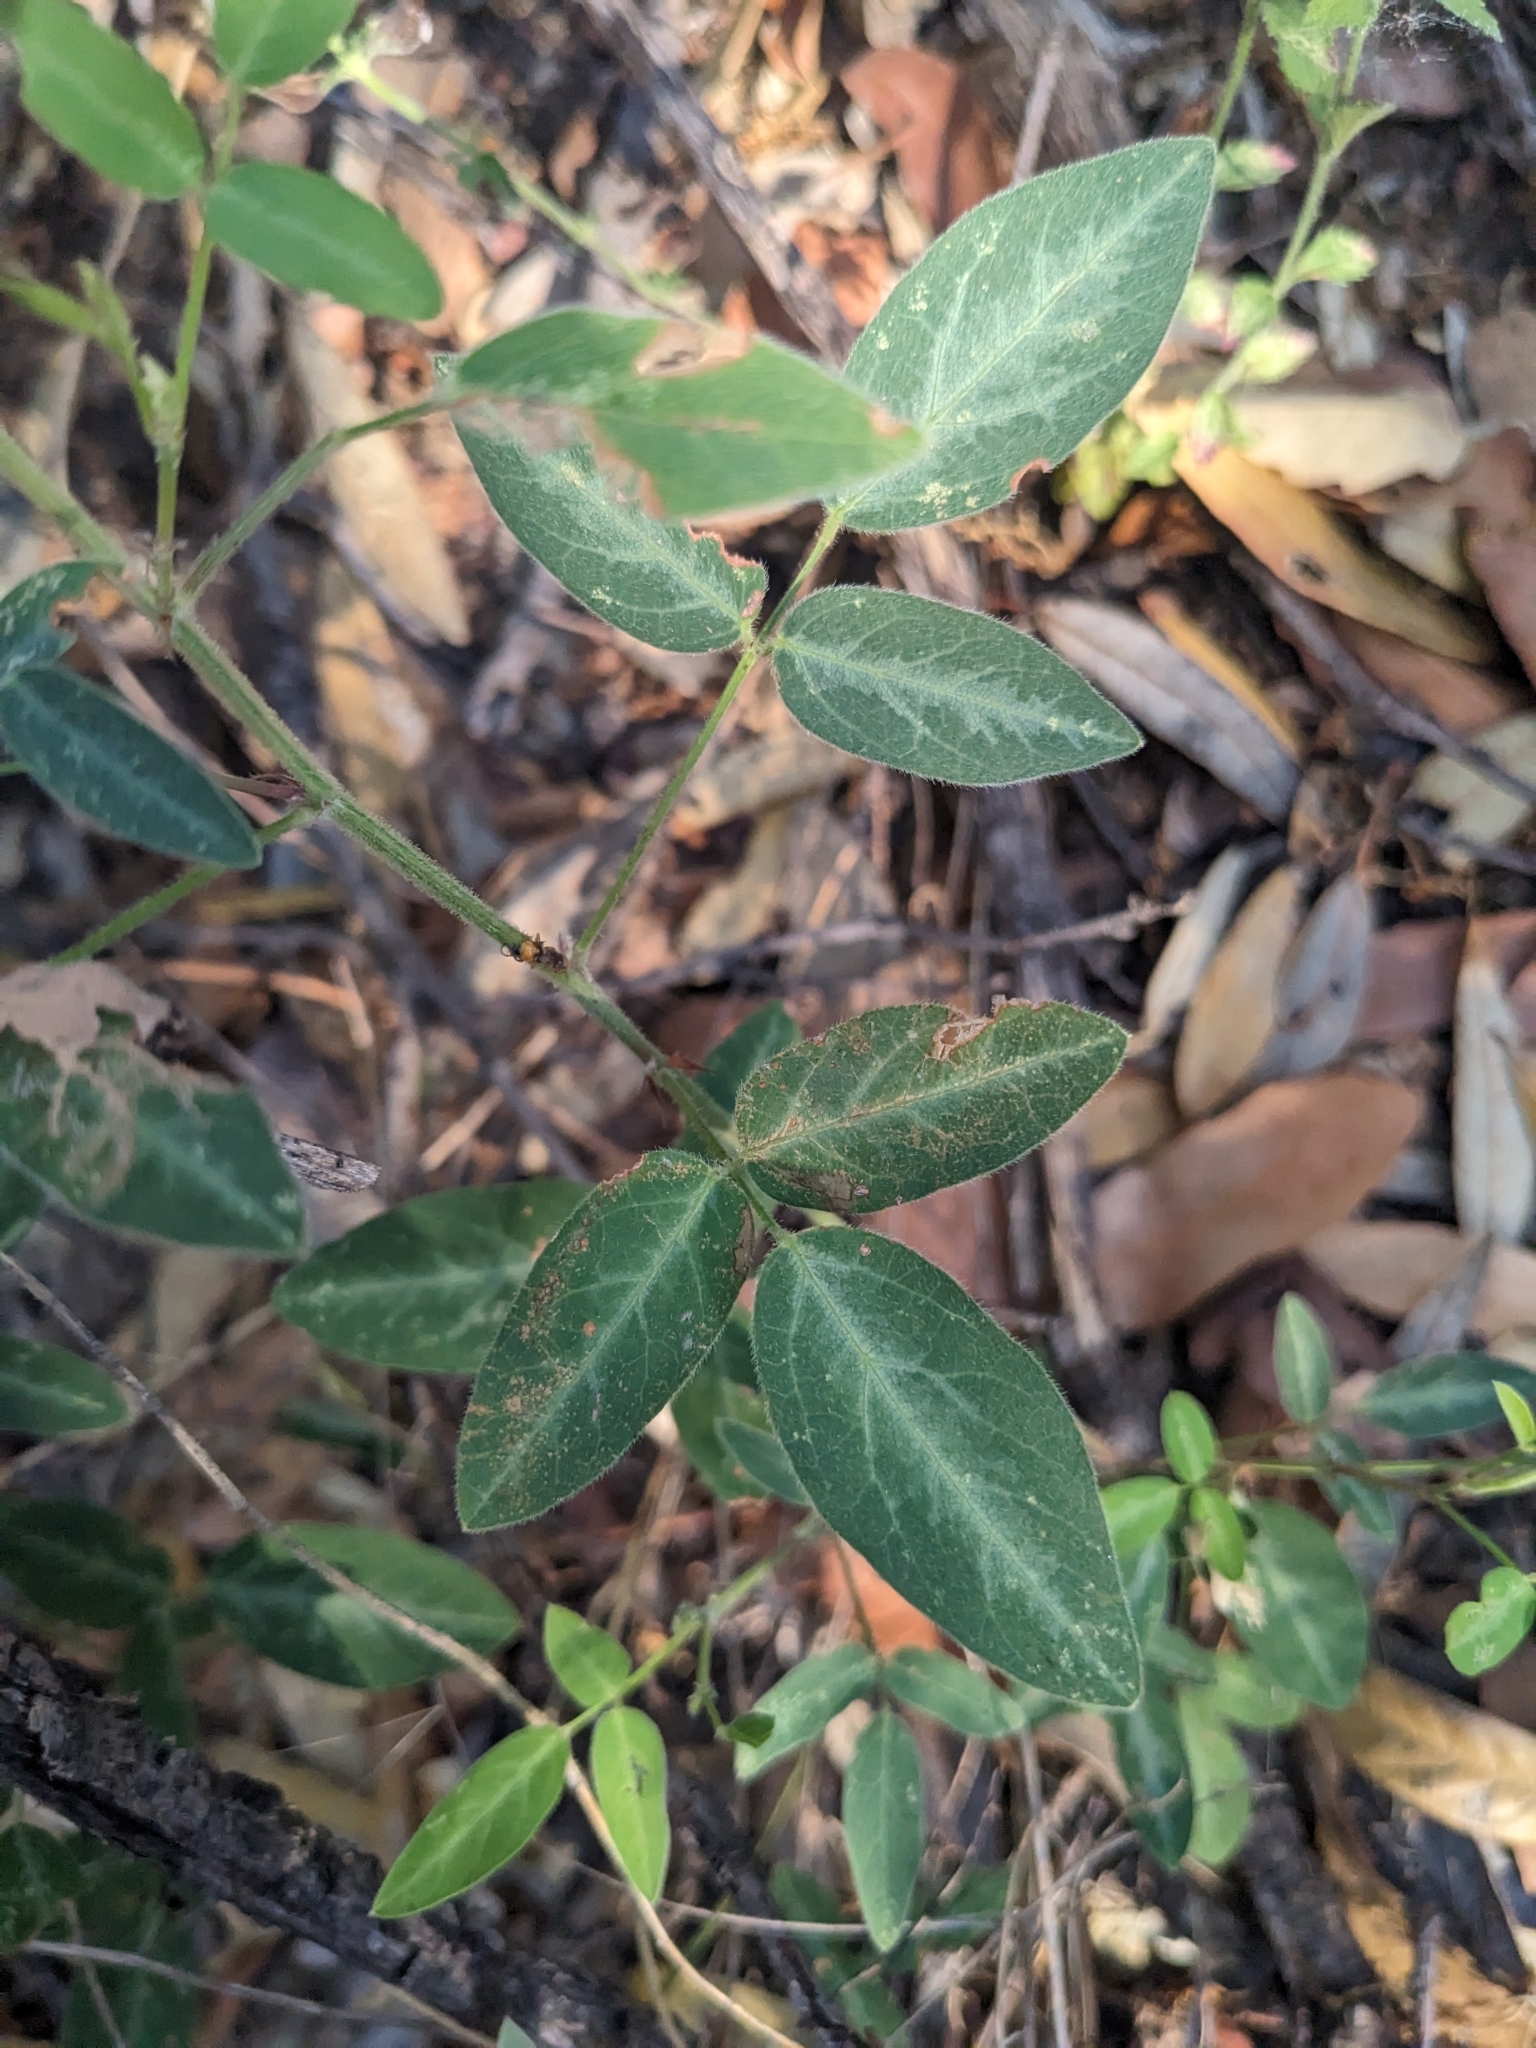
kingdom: Plantae
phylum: Tracheophyta
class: Magnoliopsida
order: Fabales
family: Fabaceae
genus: Desmodium
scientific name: Desmodium batocaulon
